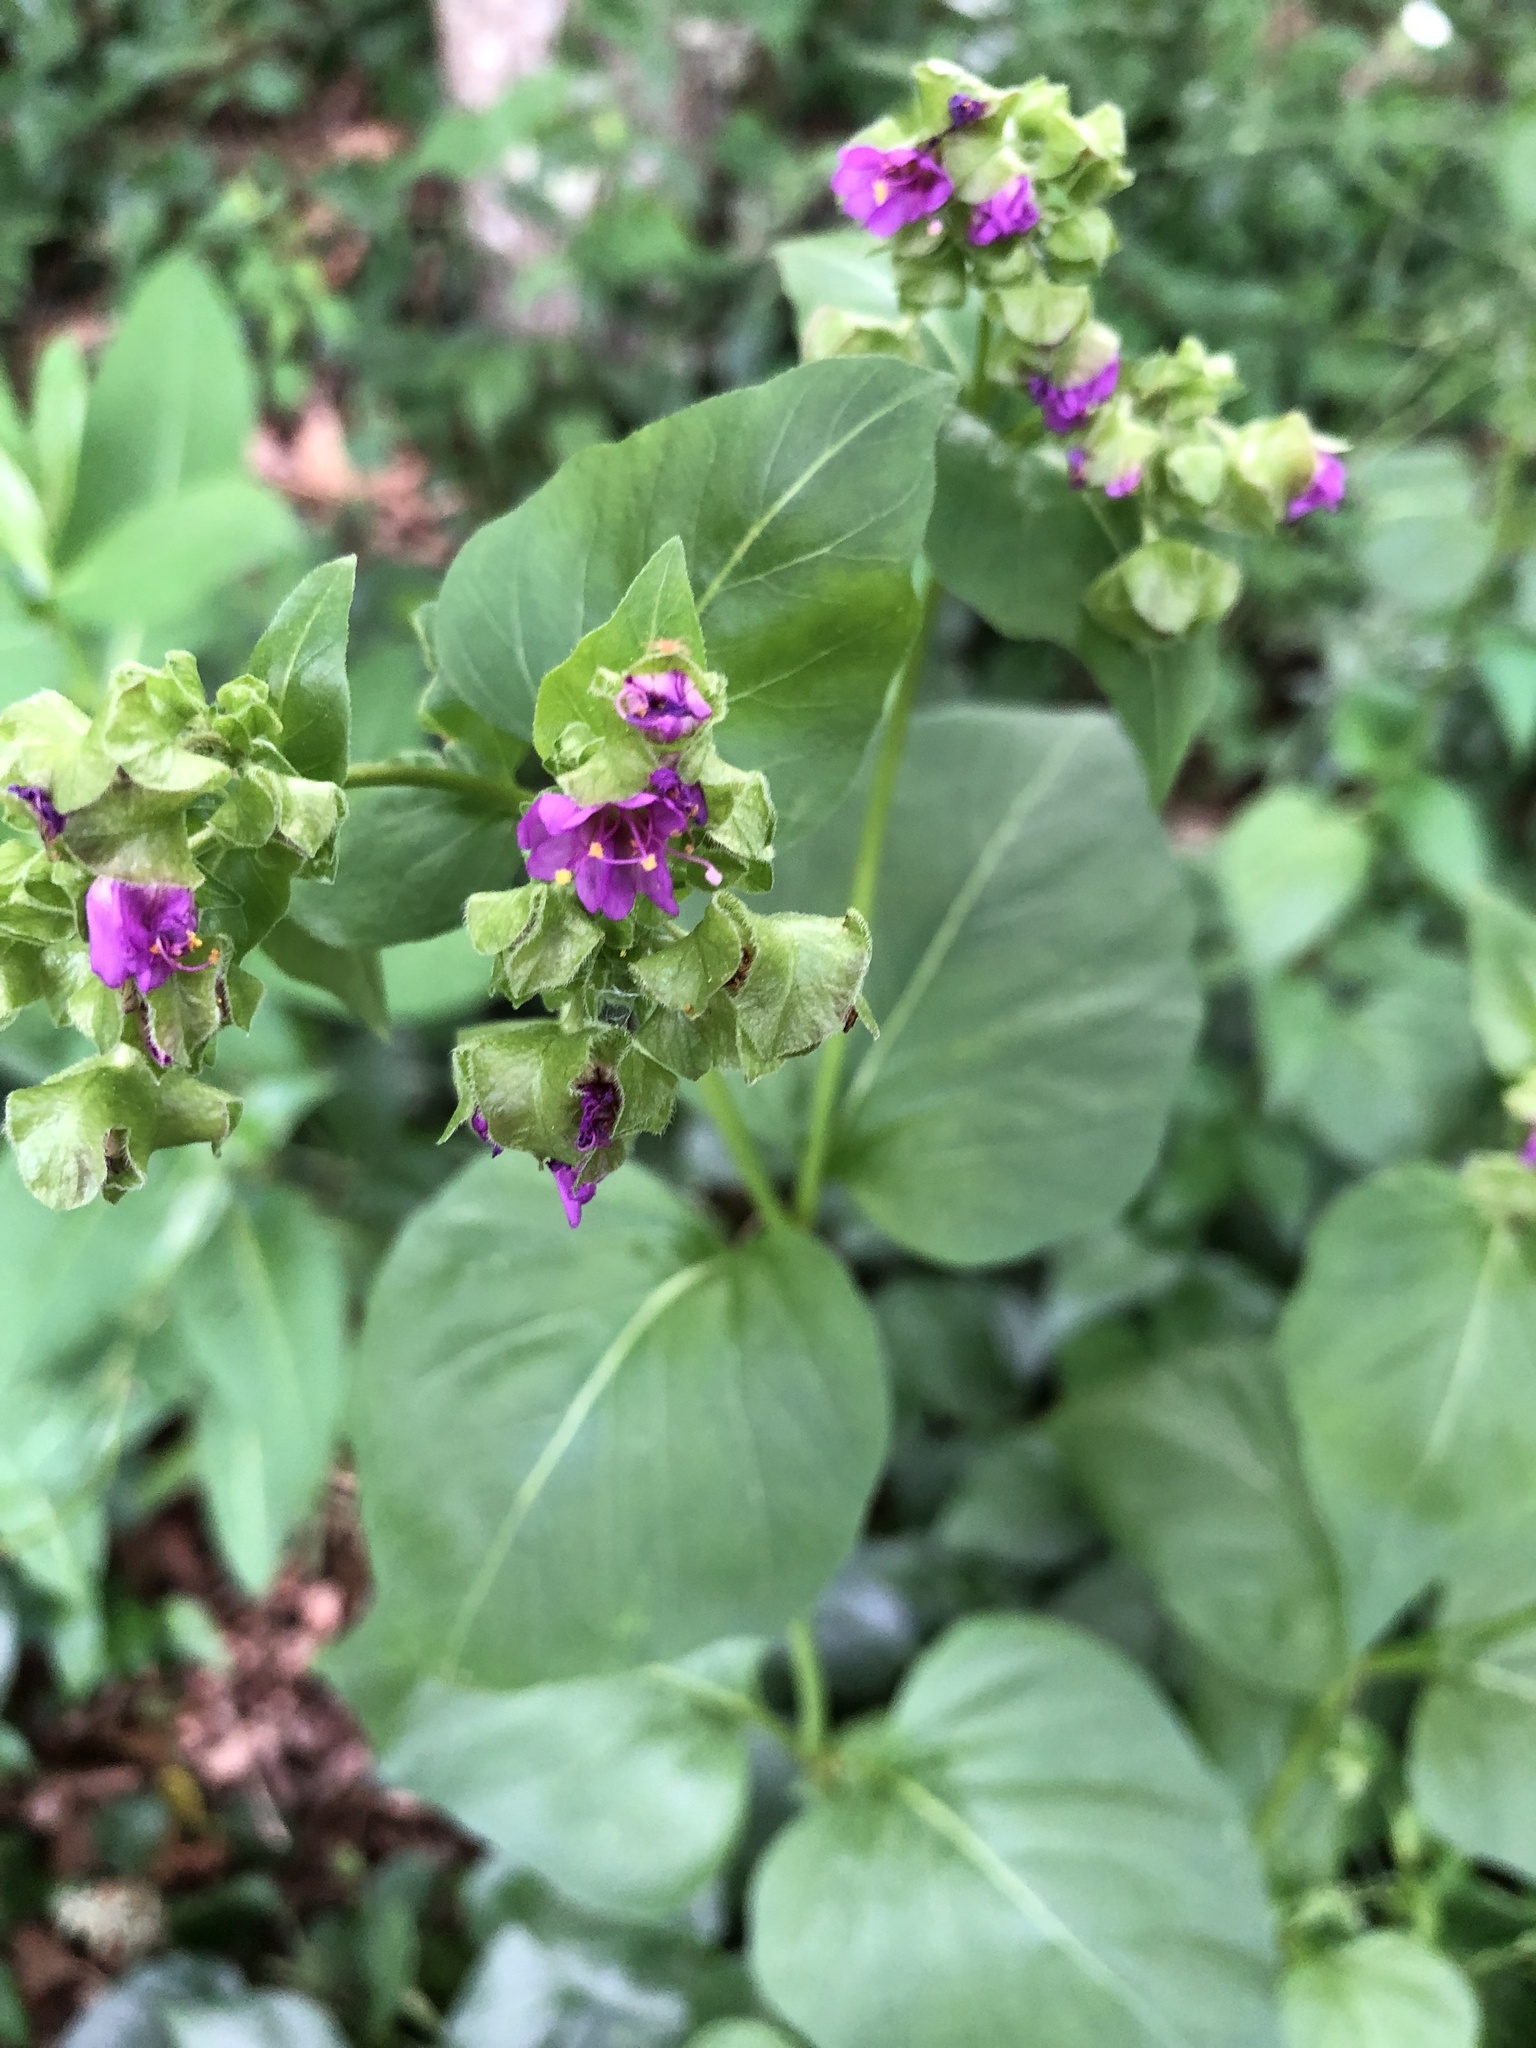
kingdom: Plantae
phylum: Tracheophyta
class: Magnoliopsida
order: Caryophyllales
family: Nyctaginaceae
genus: Mirabilis
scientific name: Mirabilis nyctaginea
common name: Umbrella wort
